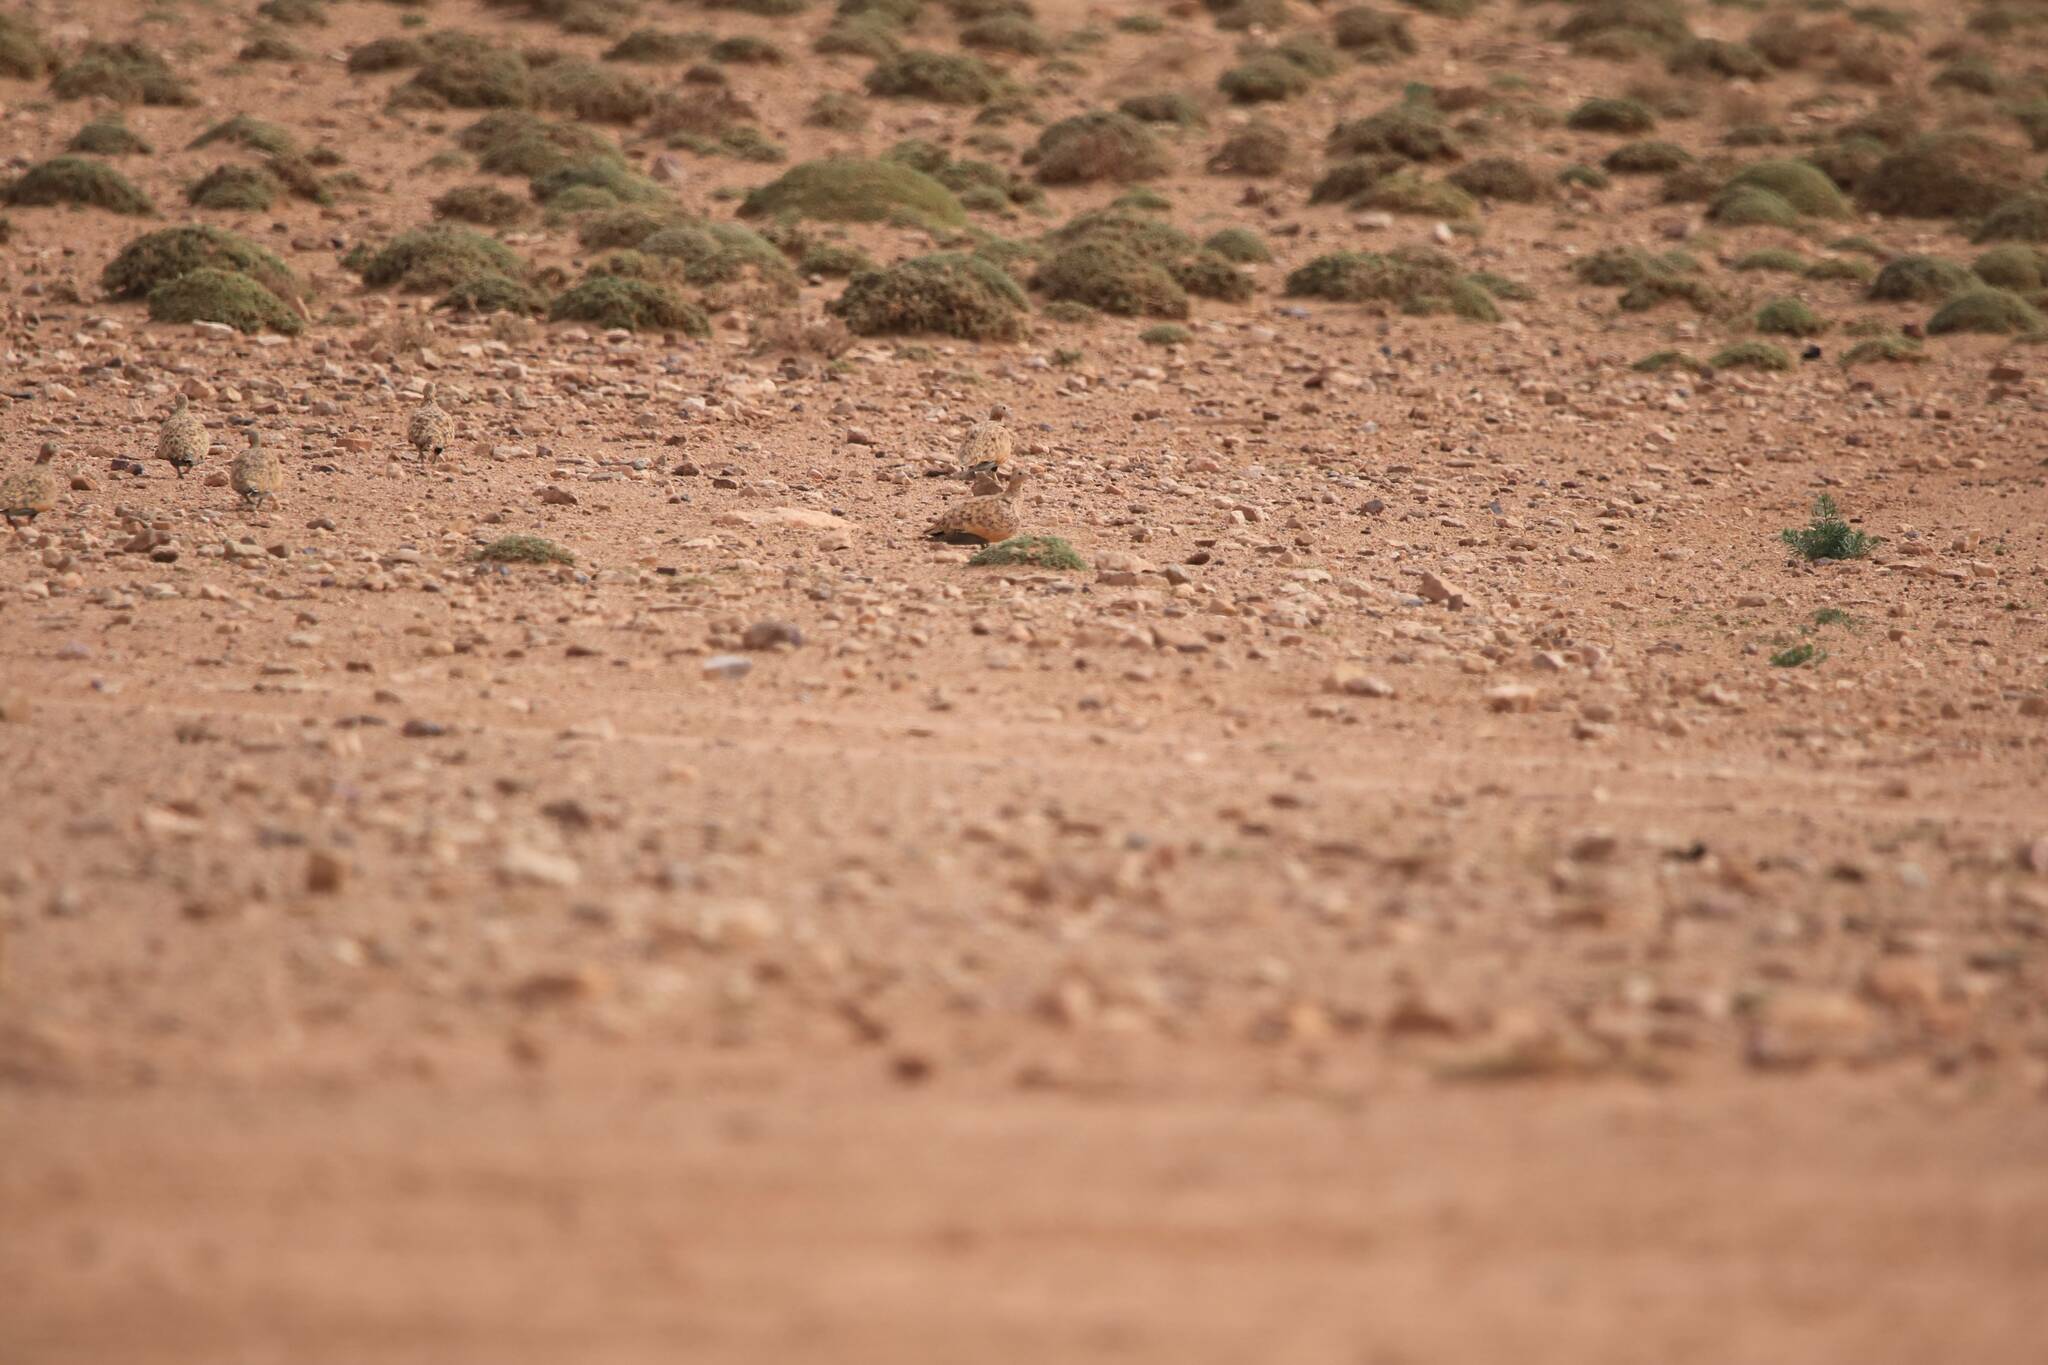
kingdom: Animalia
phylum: Chordata
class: Aves
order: Pteroclidiformes
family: Pteroclididae
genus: Pterocles
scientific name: Pterocles orientalis
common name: Black-bellied sandgrouse
